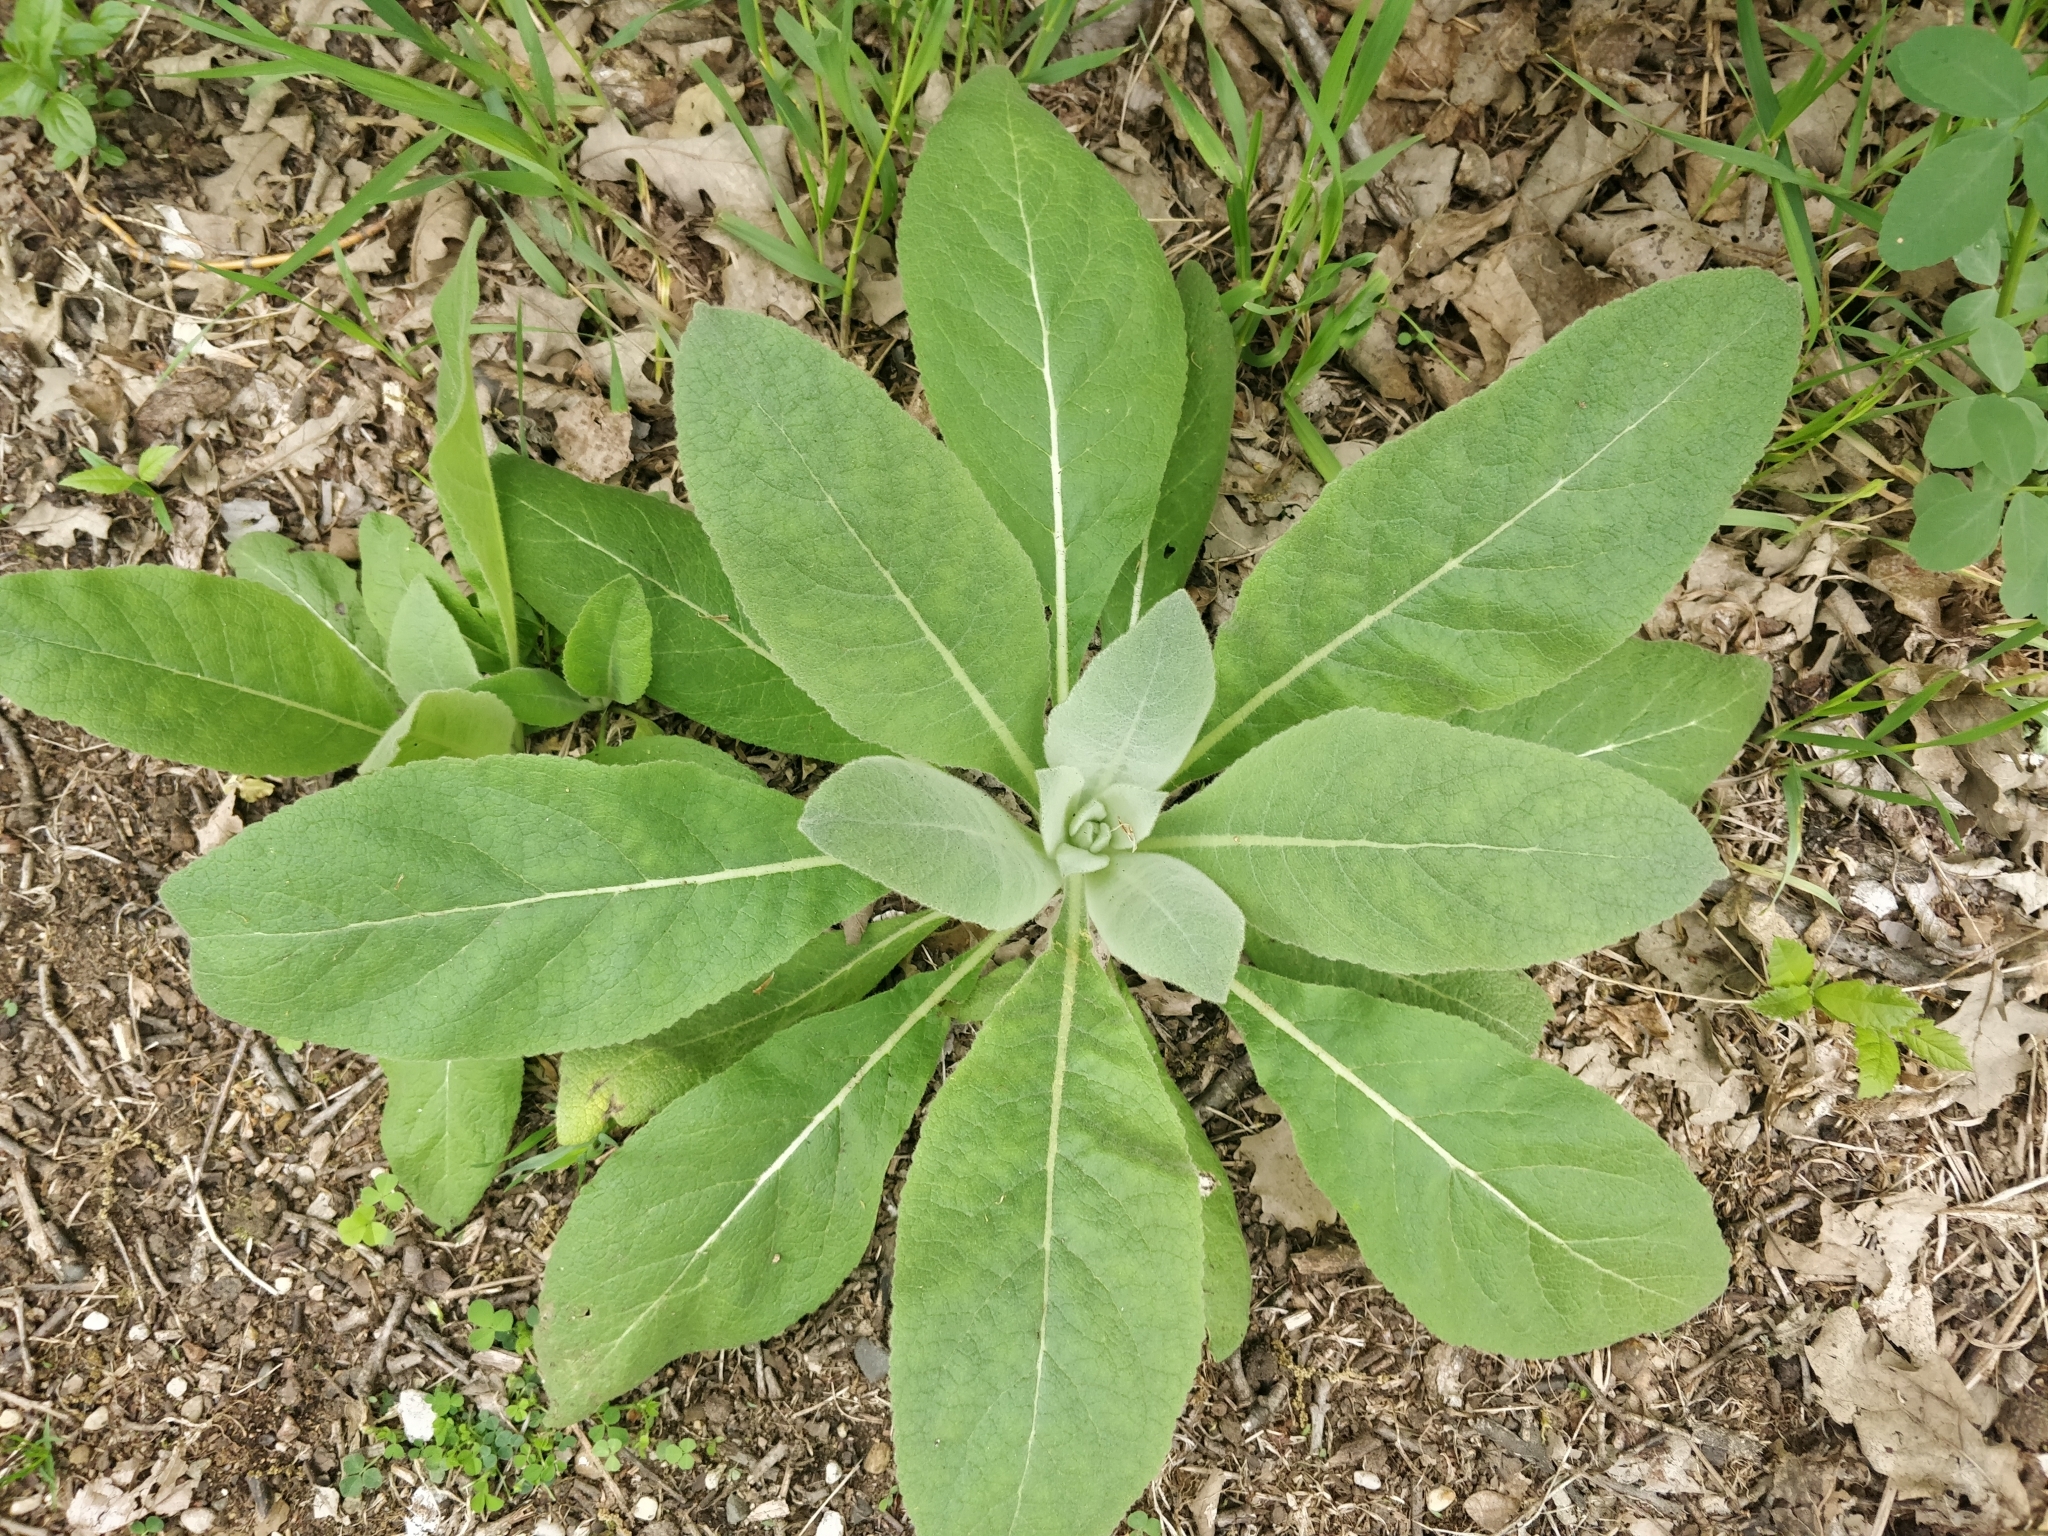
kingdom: Plantae
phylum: Tracheophyta
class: Magnoliopsida
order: Lamiales
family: Scrophulariaceae
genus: Verbascum
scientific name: Verbascum thapsus
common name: Common mullein
